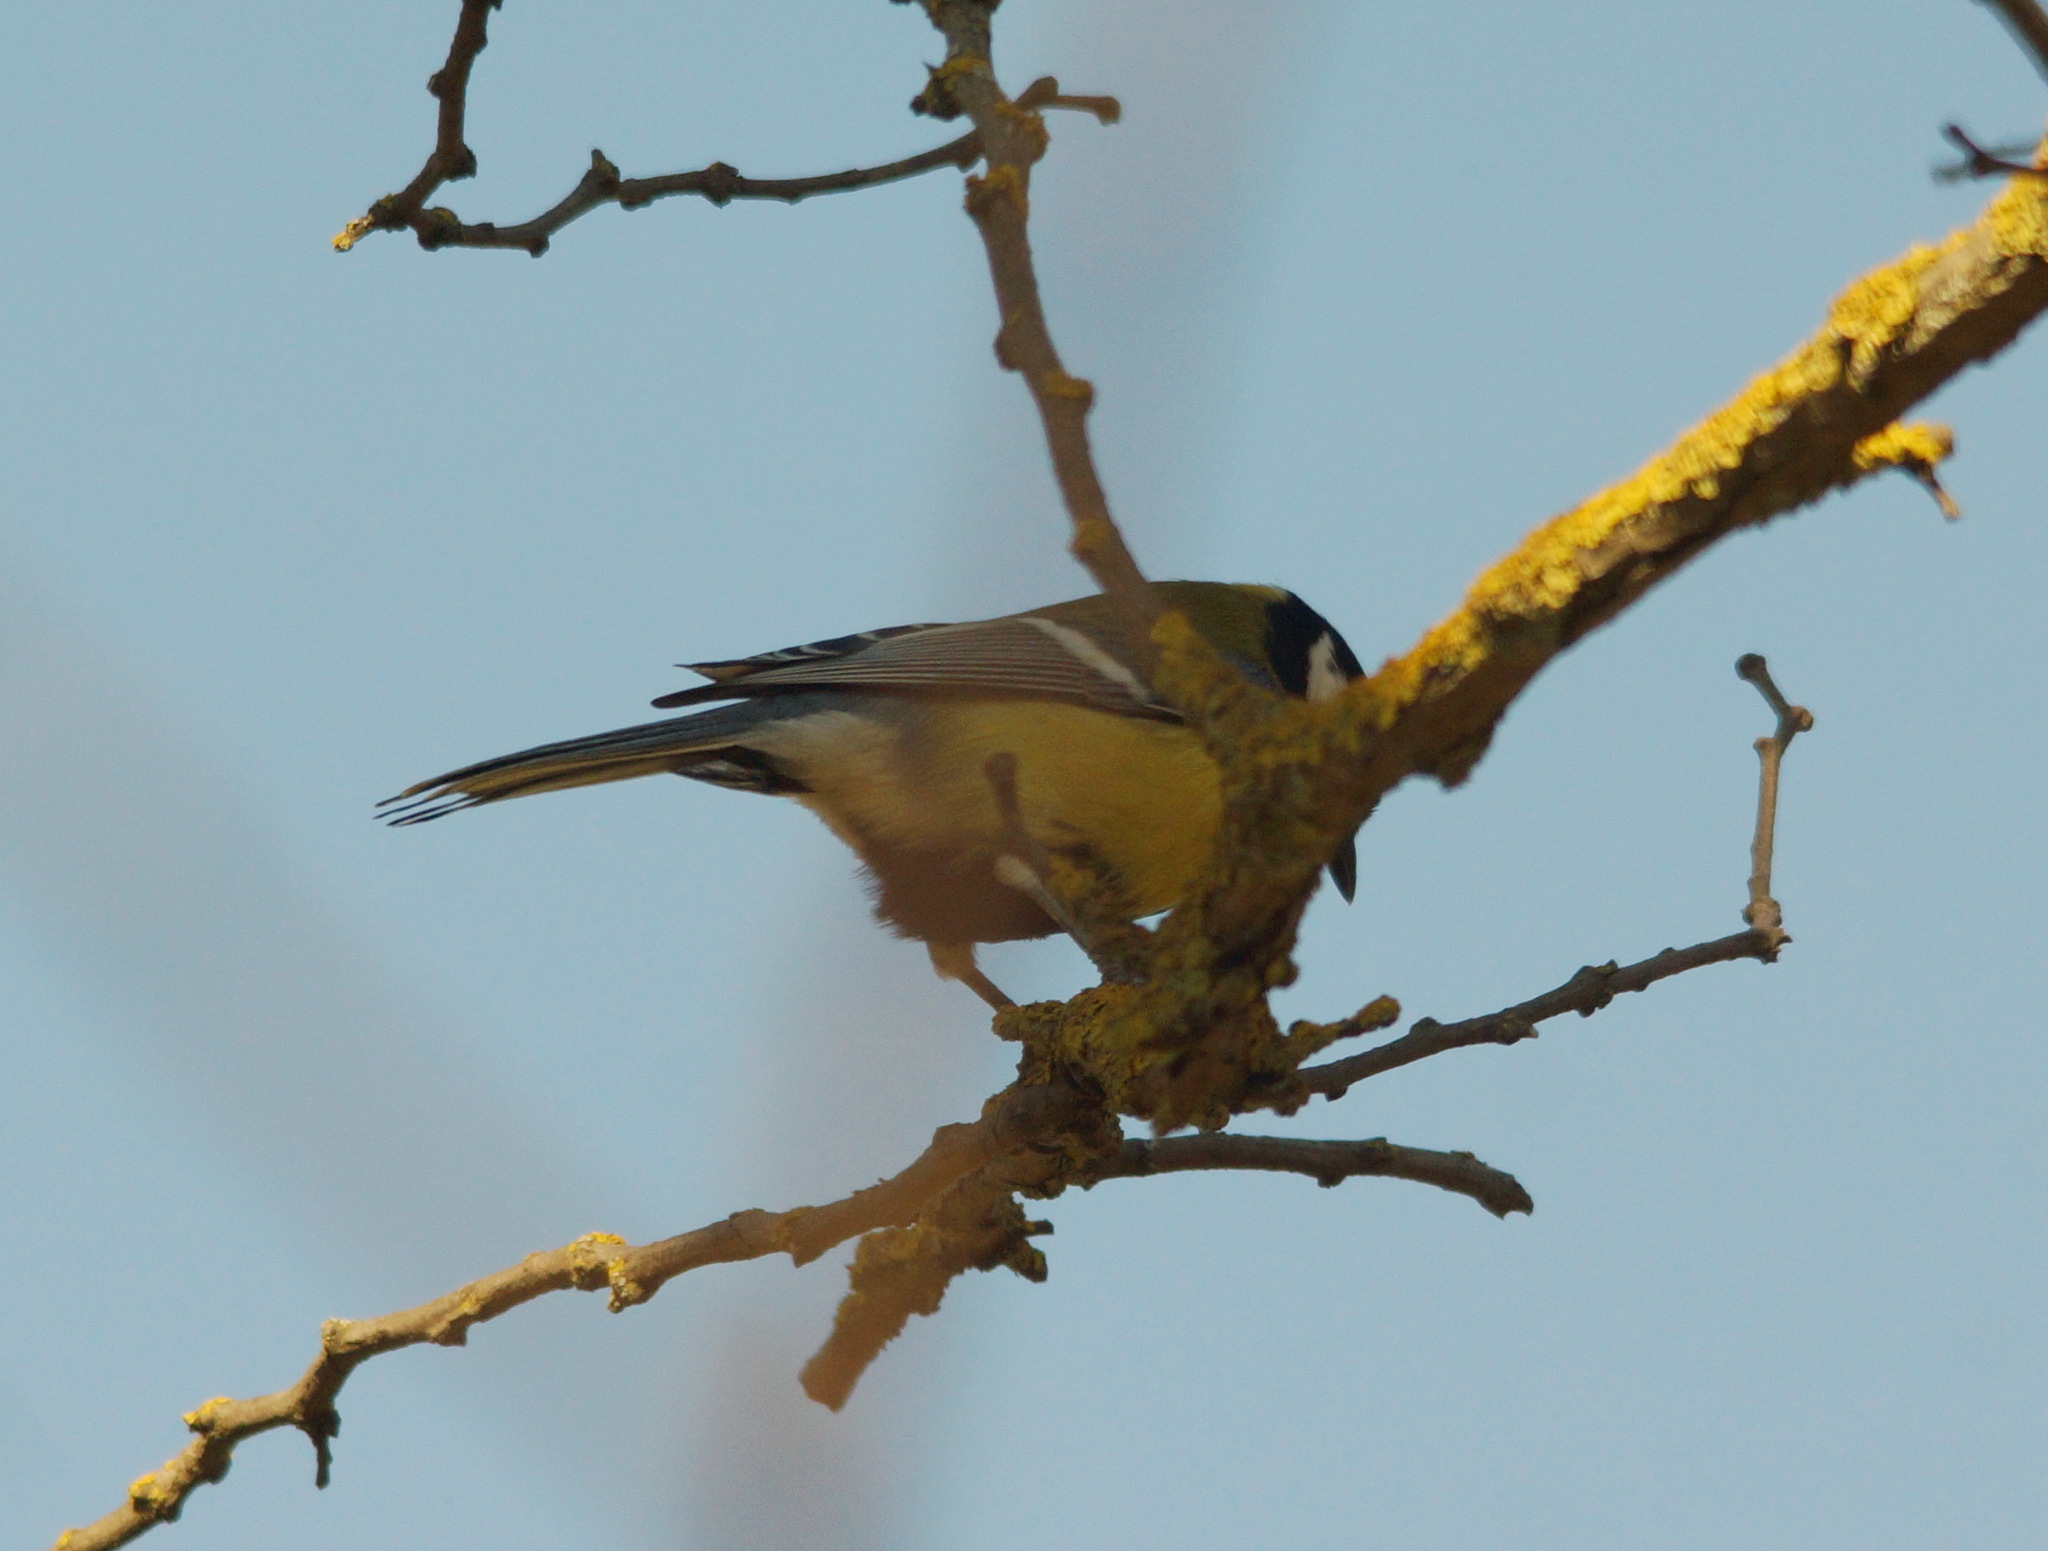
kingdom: Animalia
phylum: Chordata
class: Aves
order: Passeriformes
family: Paridae
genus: Parus
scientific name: Parus major
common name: Great tit
